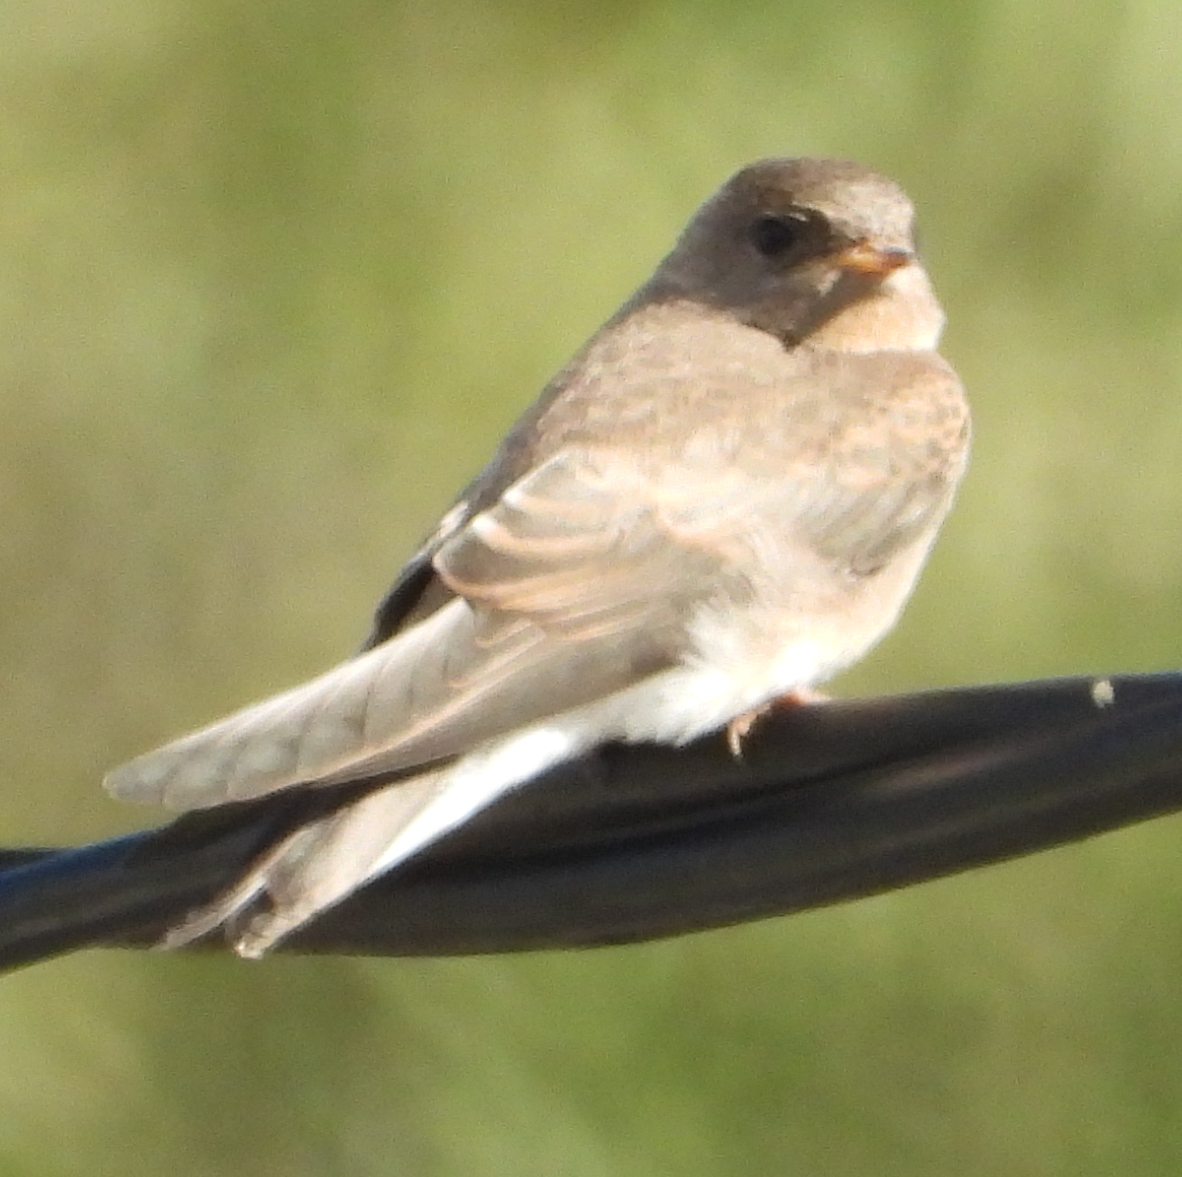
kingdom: Animalia
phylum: Chordata
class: Aves
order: Passeriformes
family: Hirundinidae
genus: Riparia
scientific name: Riparia paludicola
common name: Brown-throated martin
